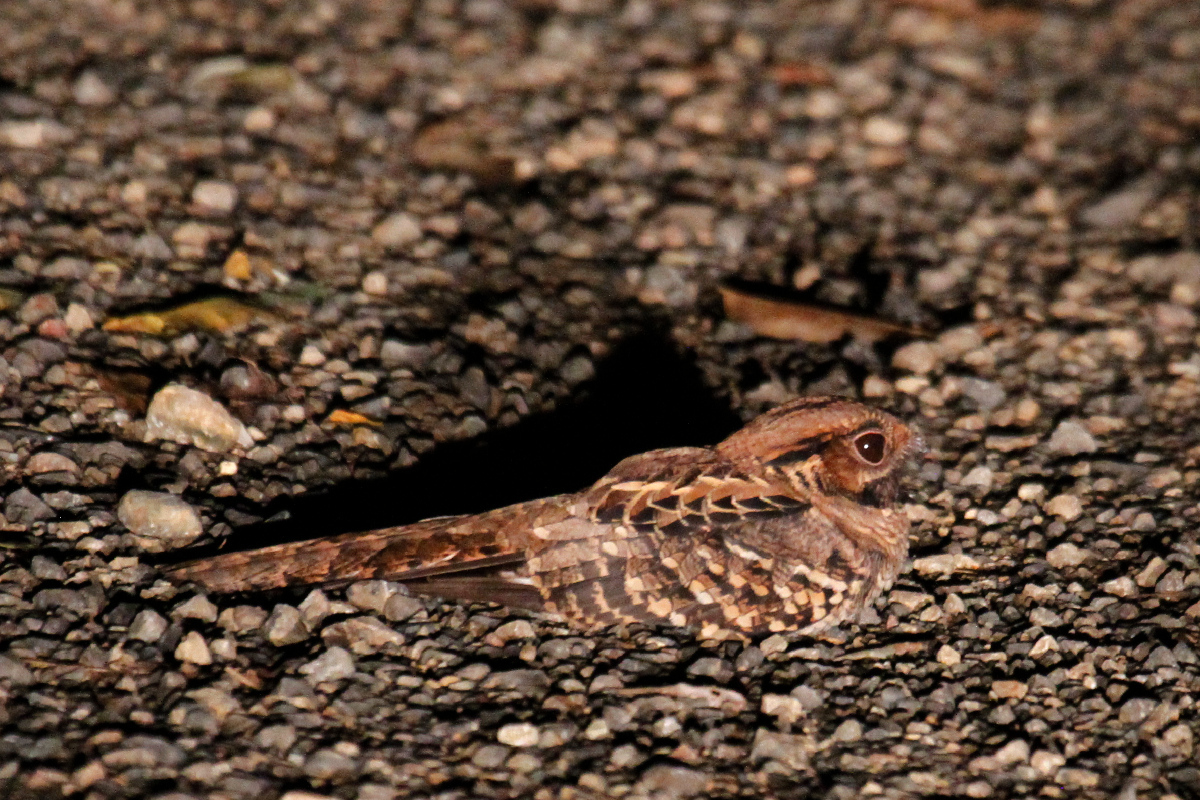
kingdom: Animalia
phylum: Chordata
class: Aves
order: Caprimulgiformes
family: Caprimulgidae
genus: Nyctidromus
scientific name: Nyctidromus albicollis
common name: Pauraque
